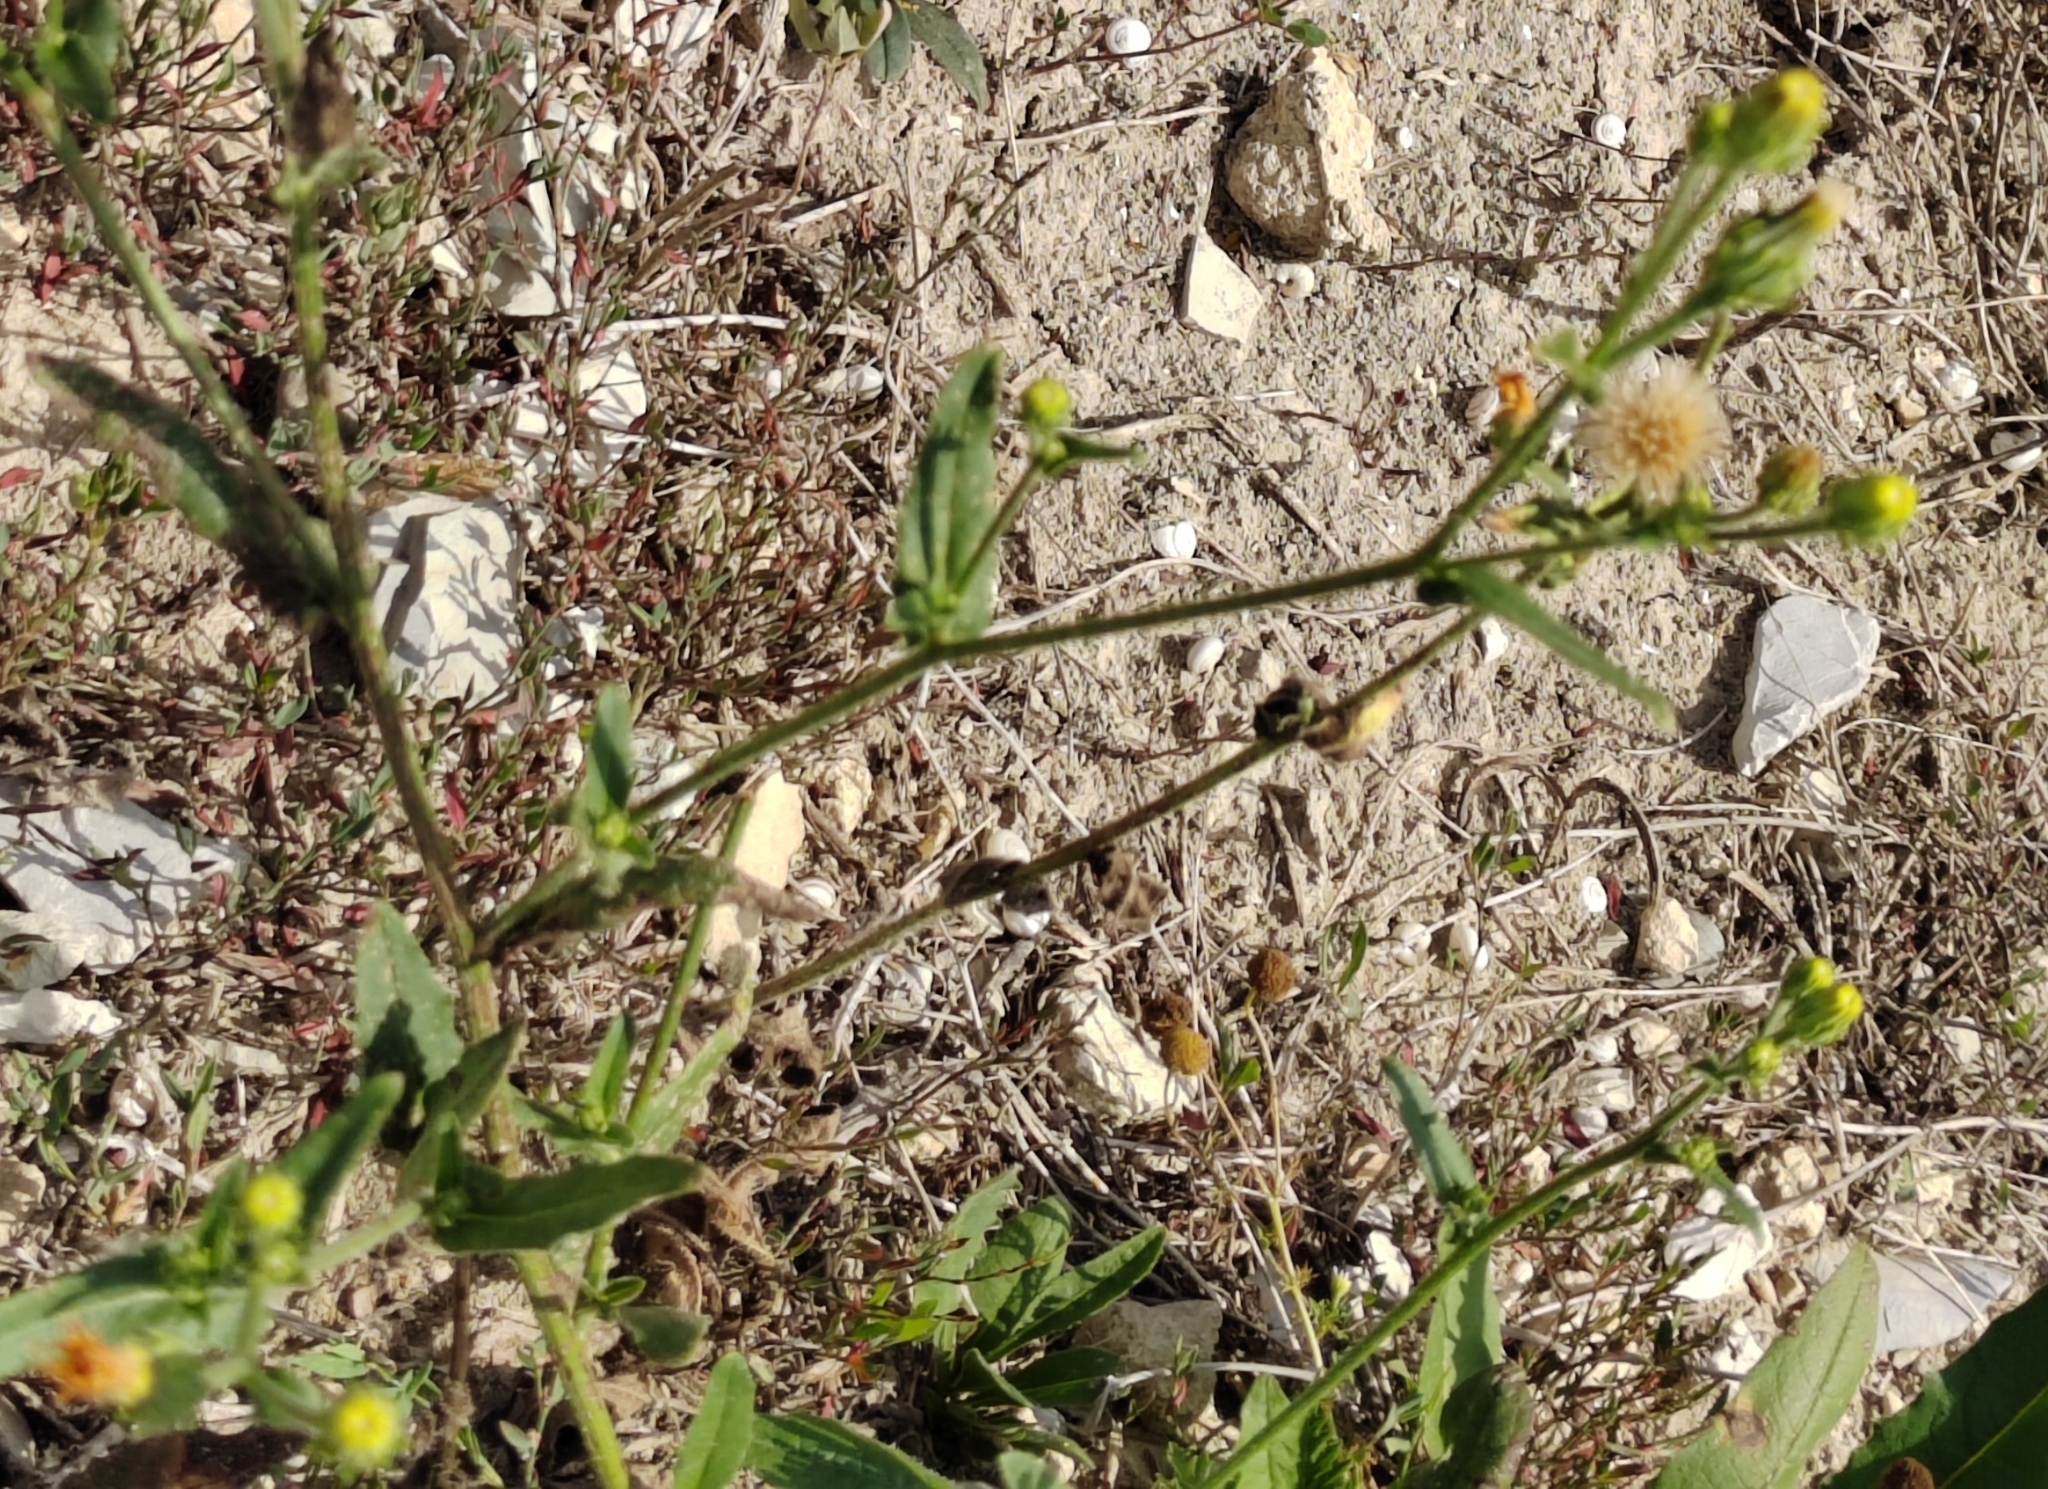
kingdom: Plantae
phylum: Tracheophyta
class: Magnoliopsida
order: Asterales
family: Asteraceae
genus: Picris
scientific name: Picris hieracioides
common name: Hawkweed oxtongue
